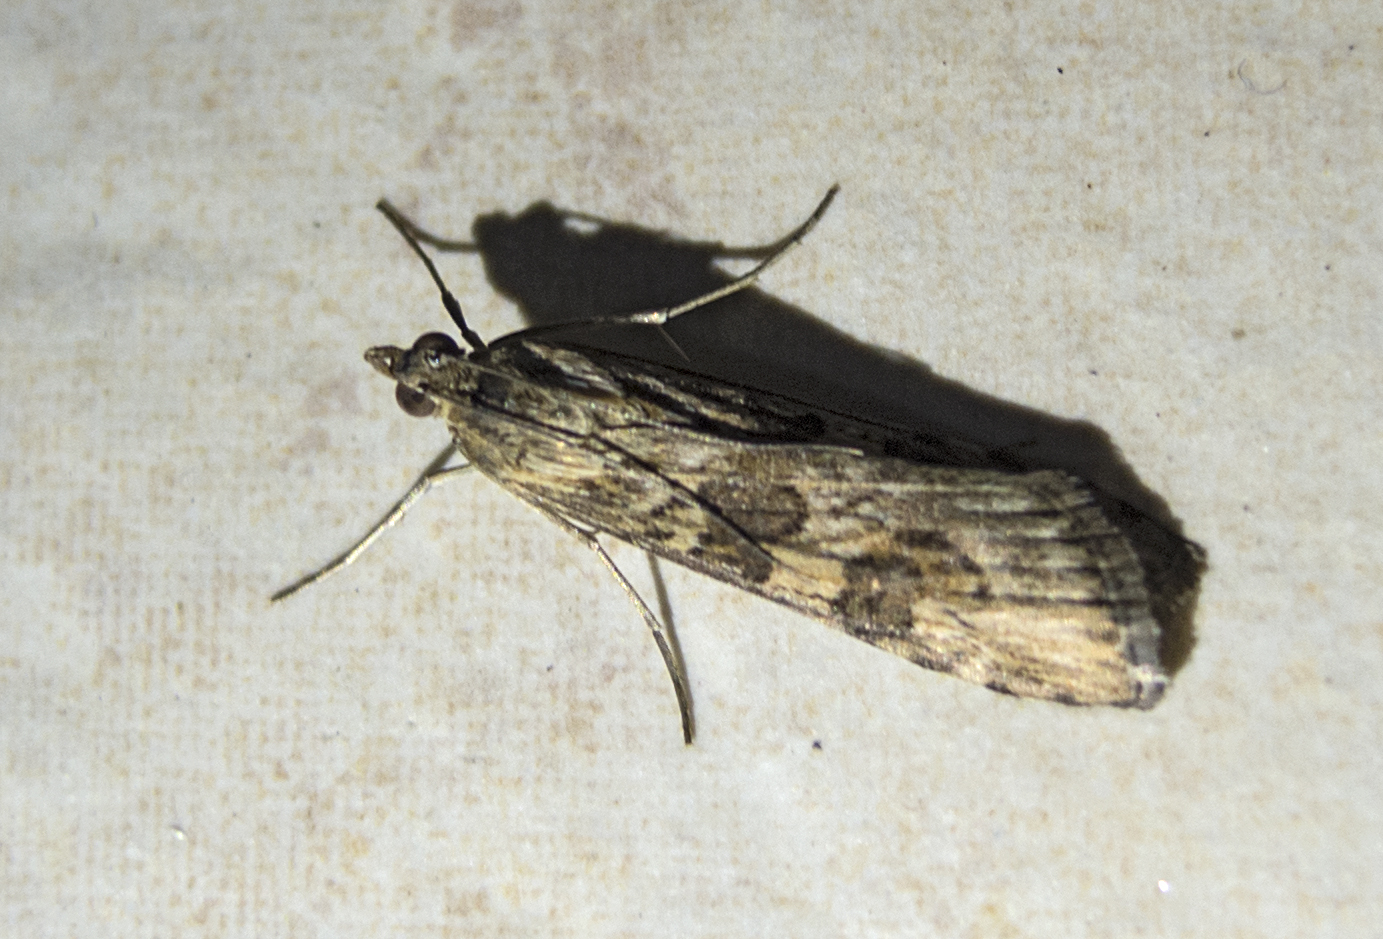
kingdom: Animalia
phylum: Arthropoda
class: Insecta
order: Lepidoptera
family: Crambidae
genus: Nomophila
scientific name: Nomophila noctuella
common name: Rush veneer
